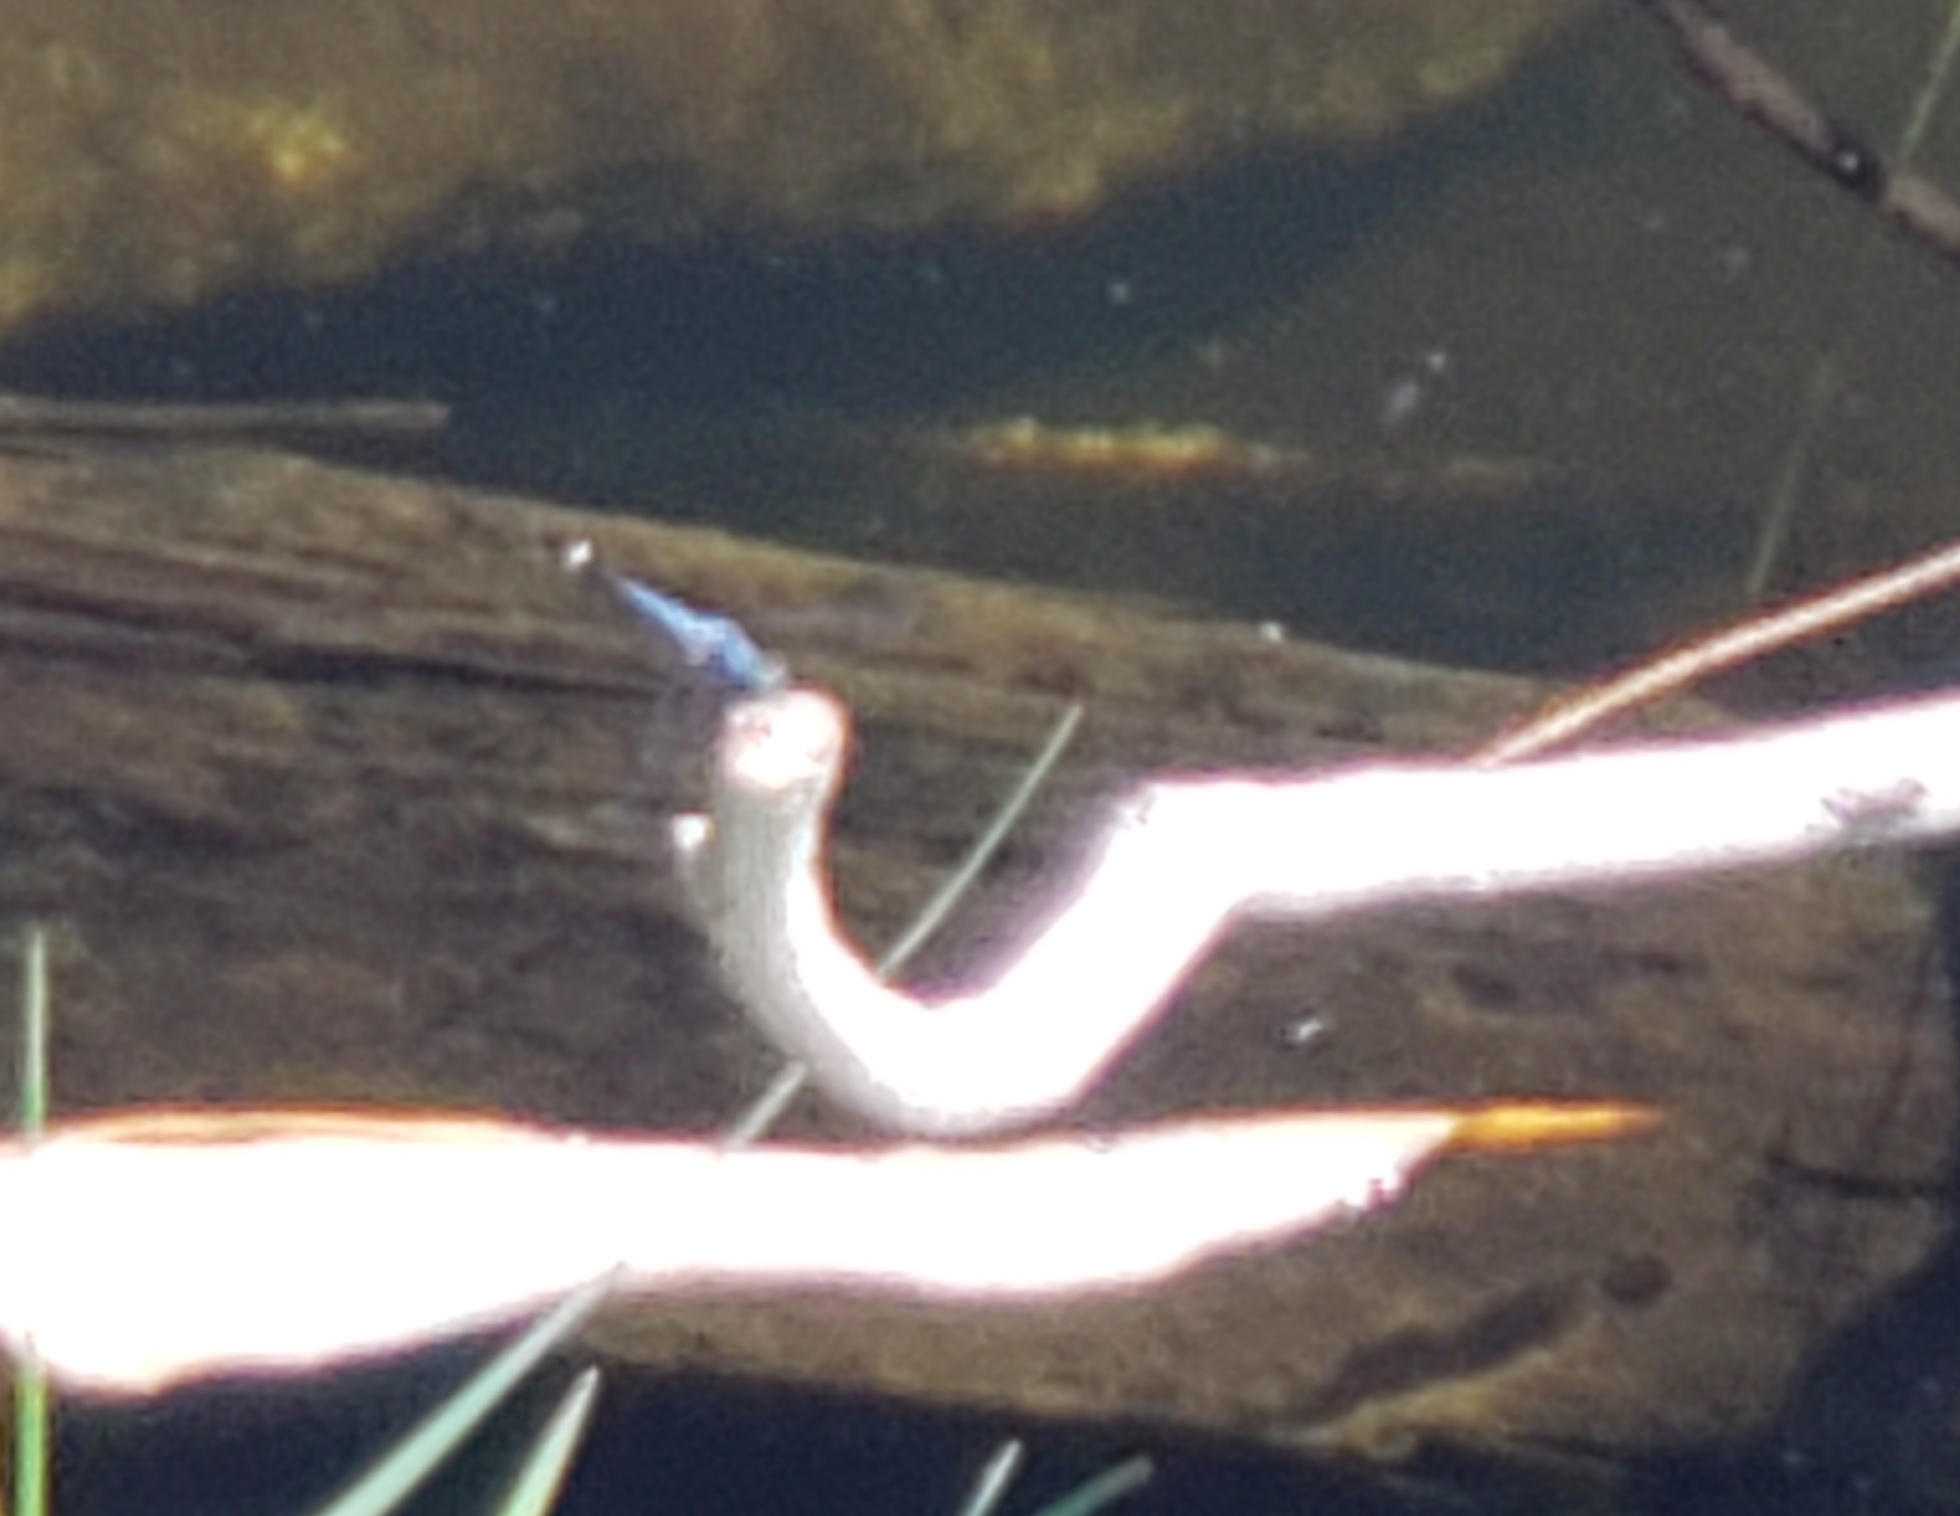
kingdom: Animalia
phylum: Arthropoda
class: Insecta
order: Odonata
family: Libellulidae
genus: Micrathyria
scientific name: Micrathyria aequalis
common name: Spot-tailed dasher
